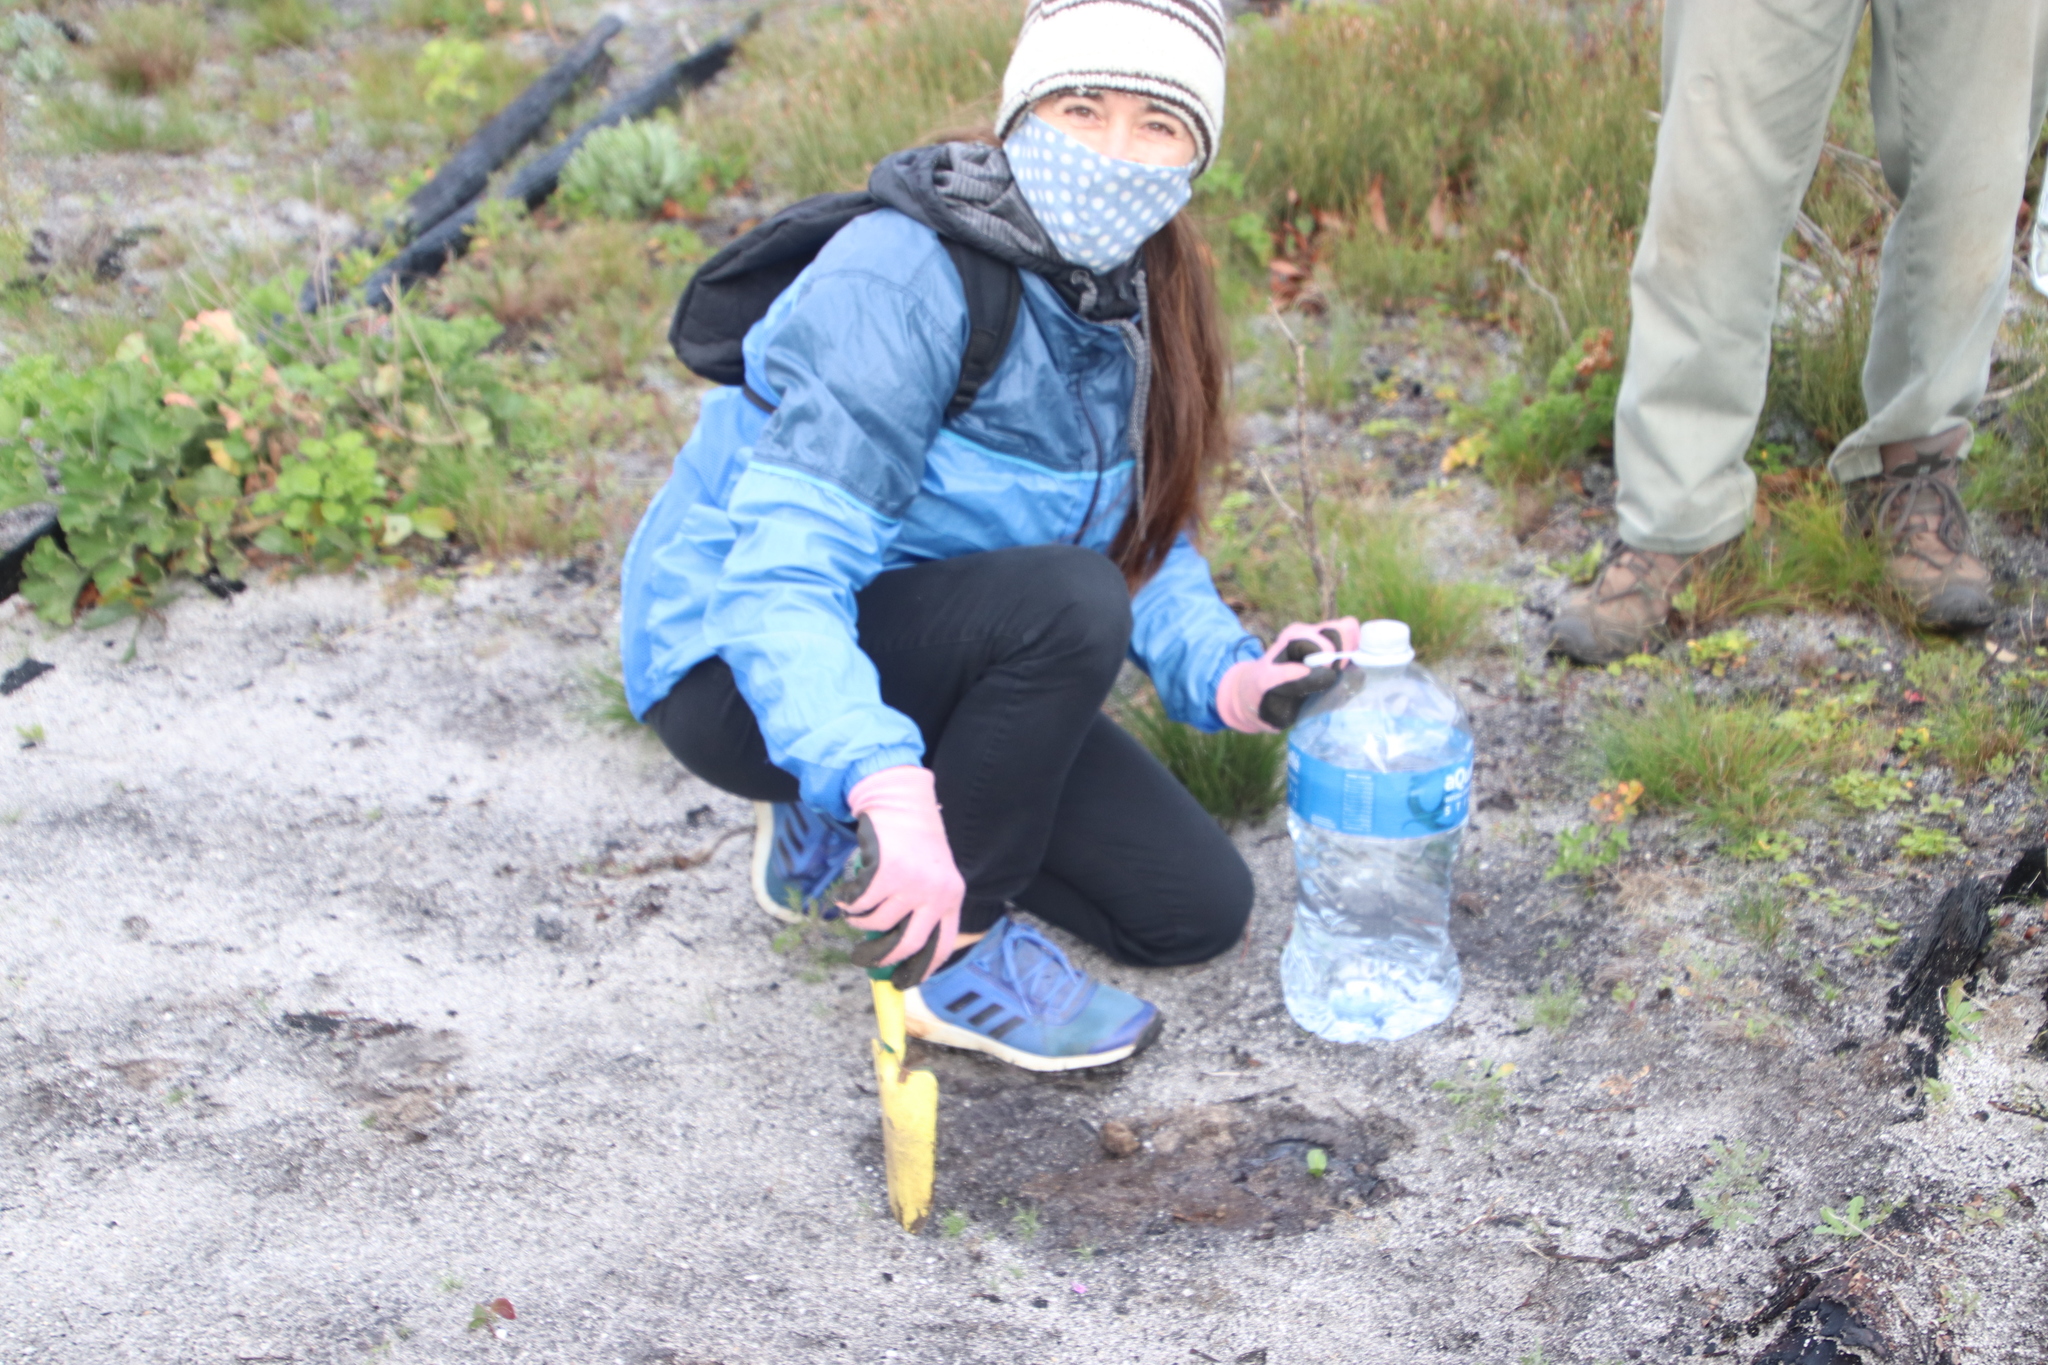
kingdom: Plantae
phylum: Tracheophyta
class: Magnoliopsida
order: Proteales
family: Proteaceae
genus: Leucospermum
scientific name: Leucospermum conocarpodendron
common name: Tree pincushion
